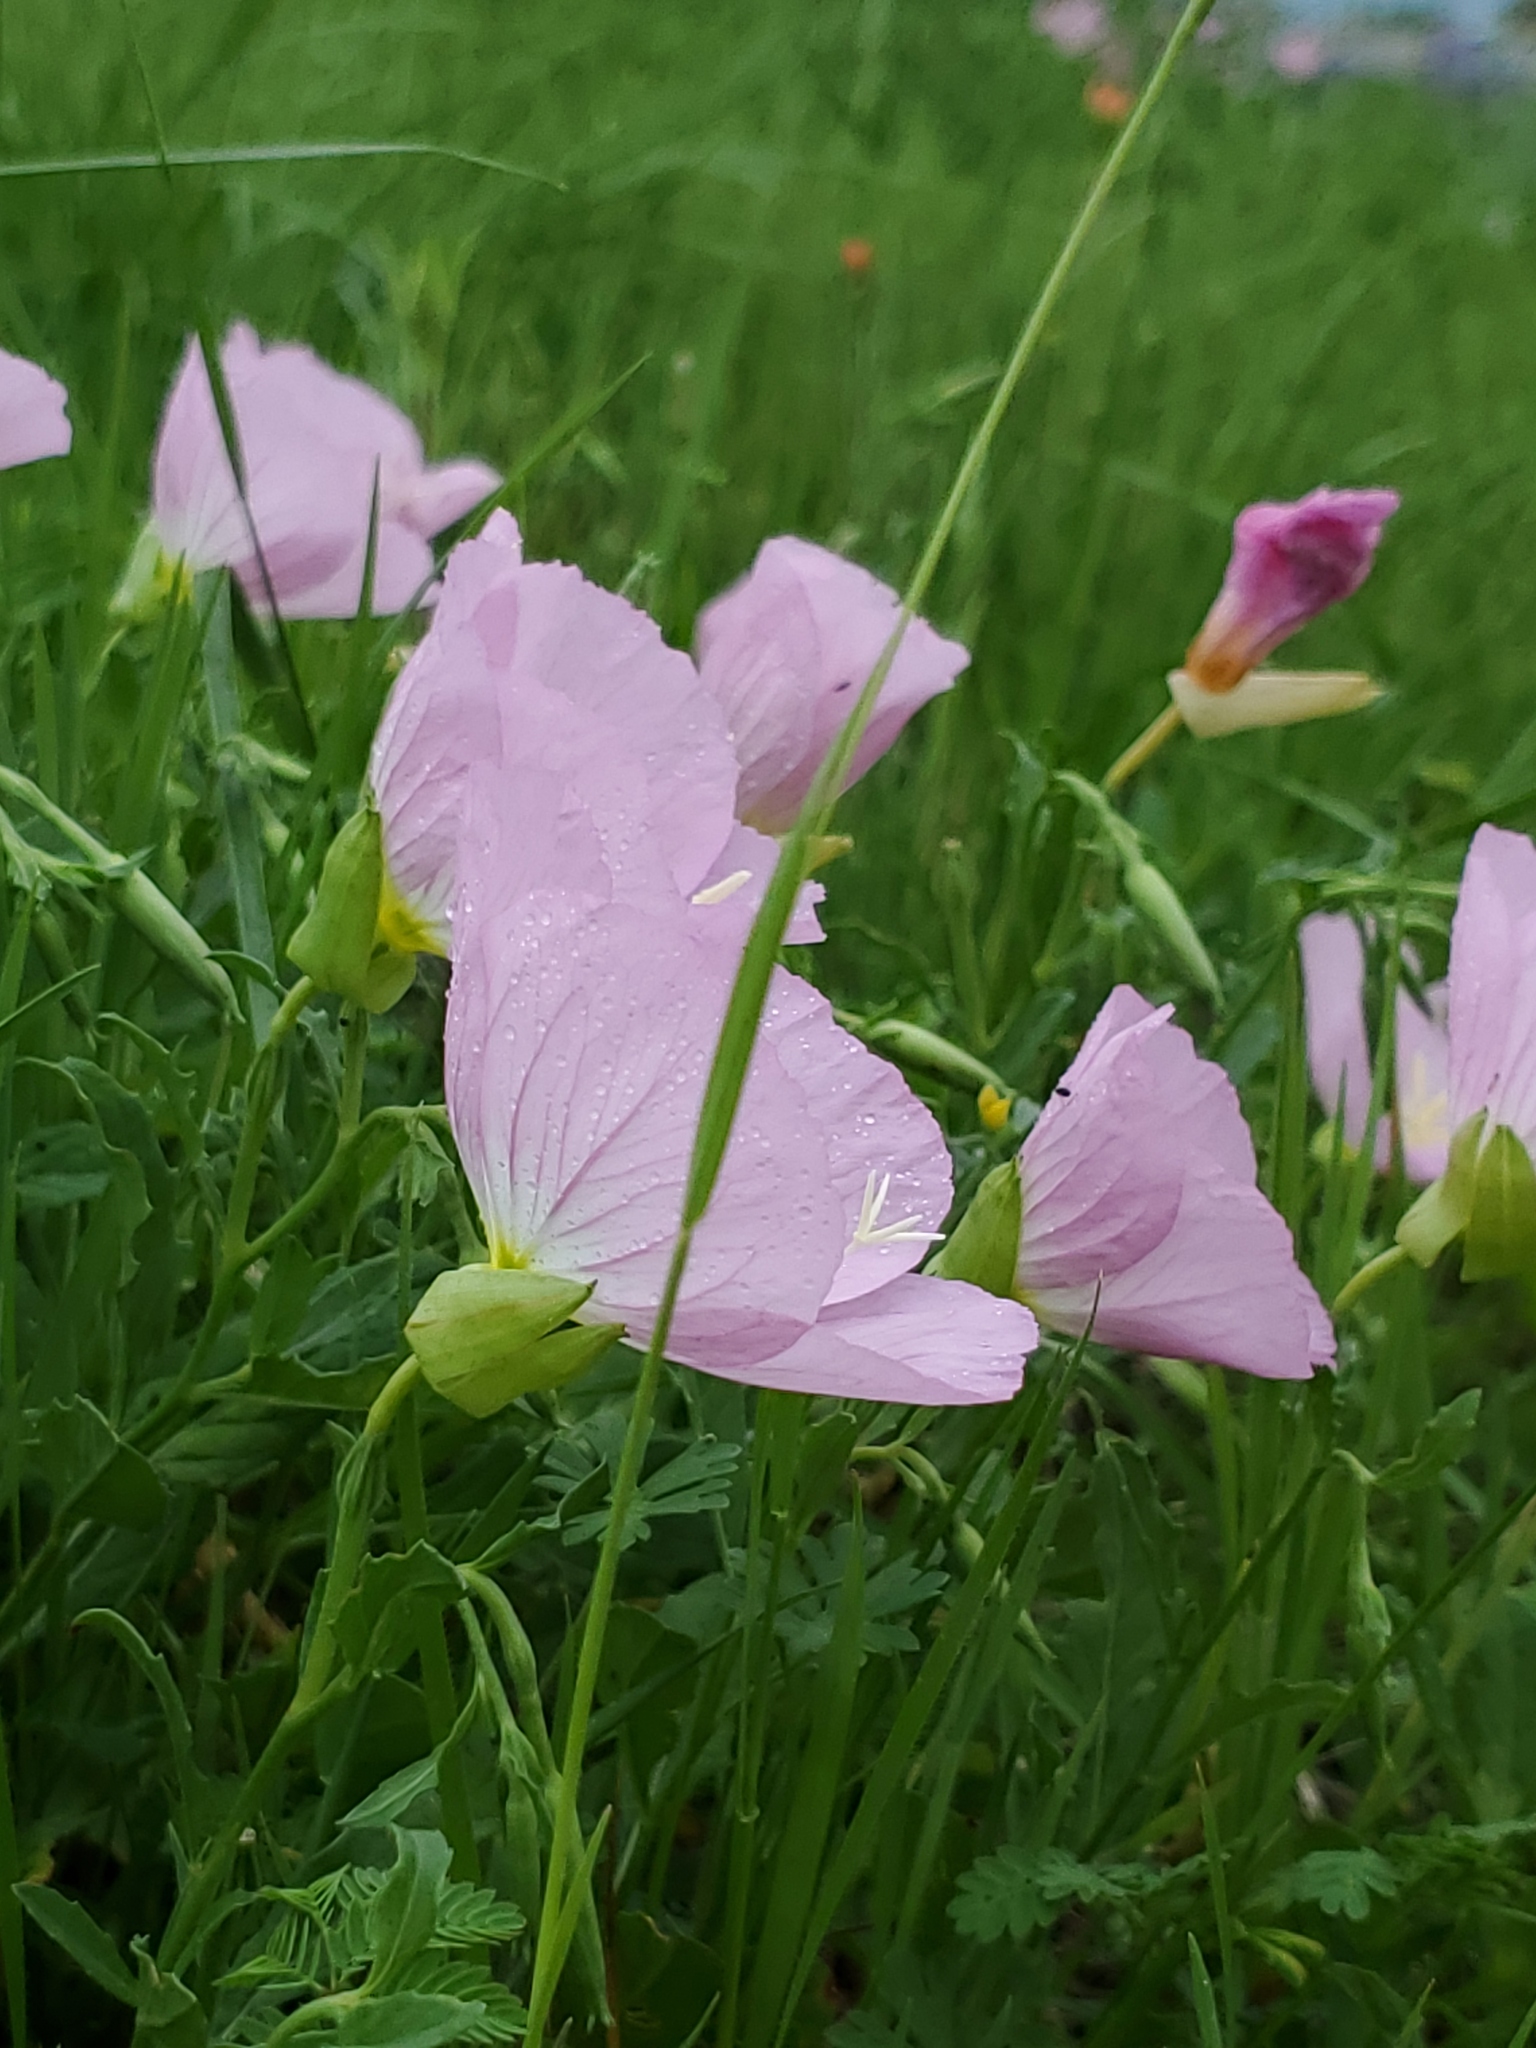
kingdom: Plantae
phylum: Tracheophyta
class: Magnoliopsida
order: Myrtales
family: Onagraceae
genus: Oenothera
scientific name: Oenothera speciosa
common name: White evening-primrose
